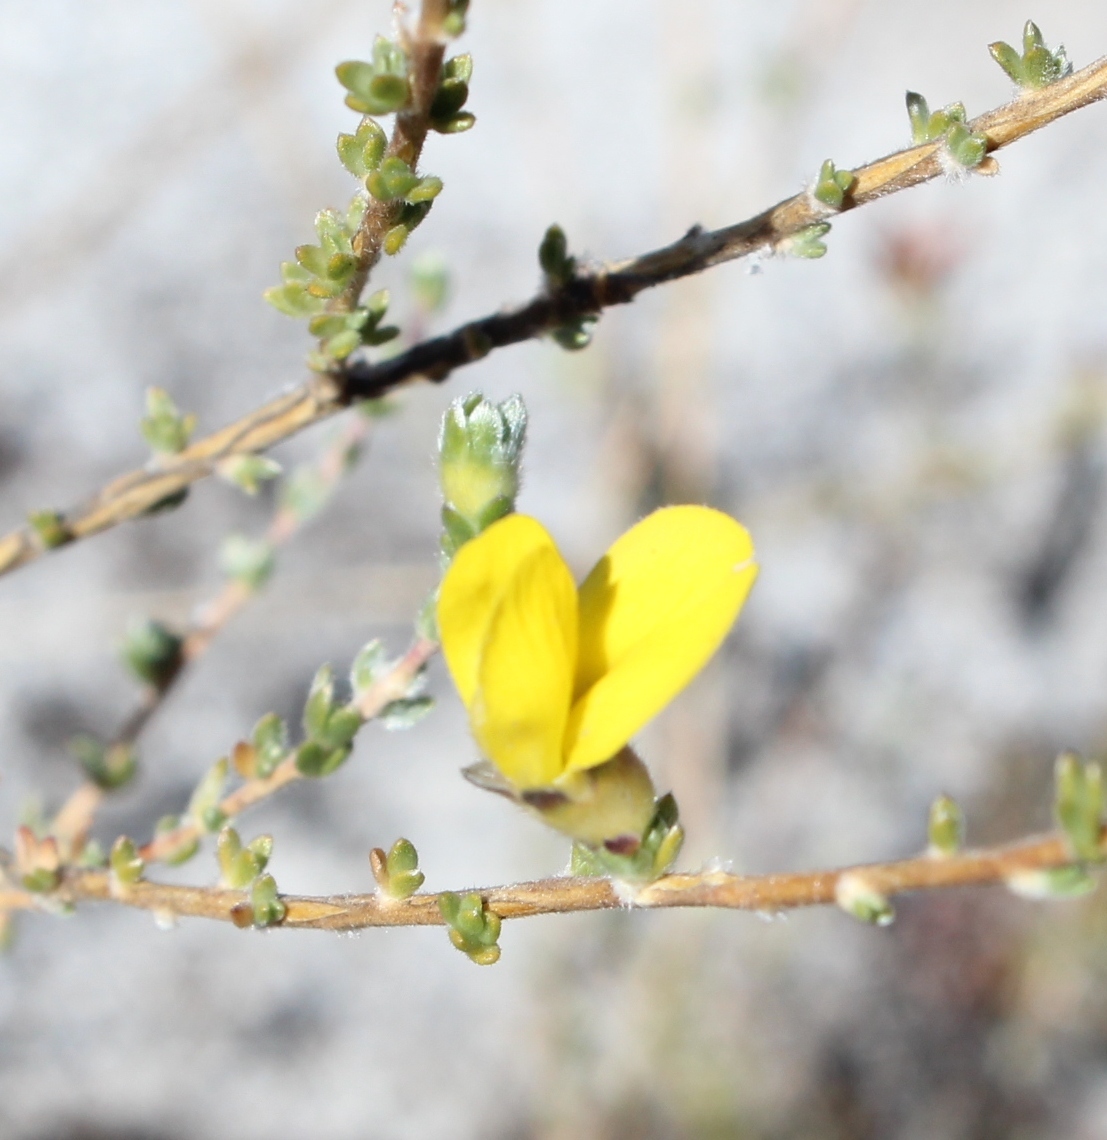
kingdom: Plantae
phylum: Tracheophyta
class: Magnoliopsida
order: Fabales
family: Fabaceae
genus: Aspalathus
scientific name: Aspalathus intervallaris
